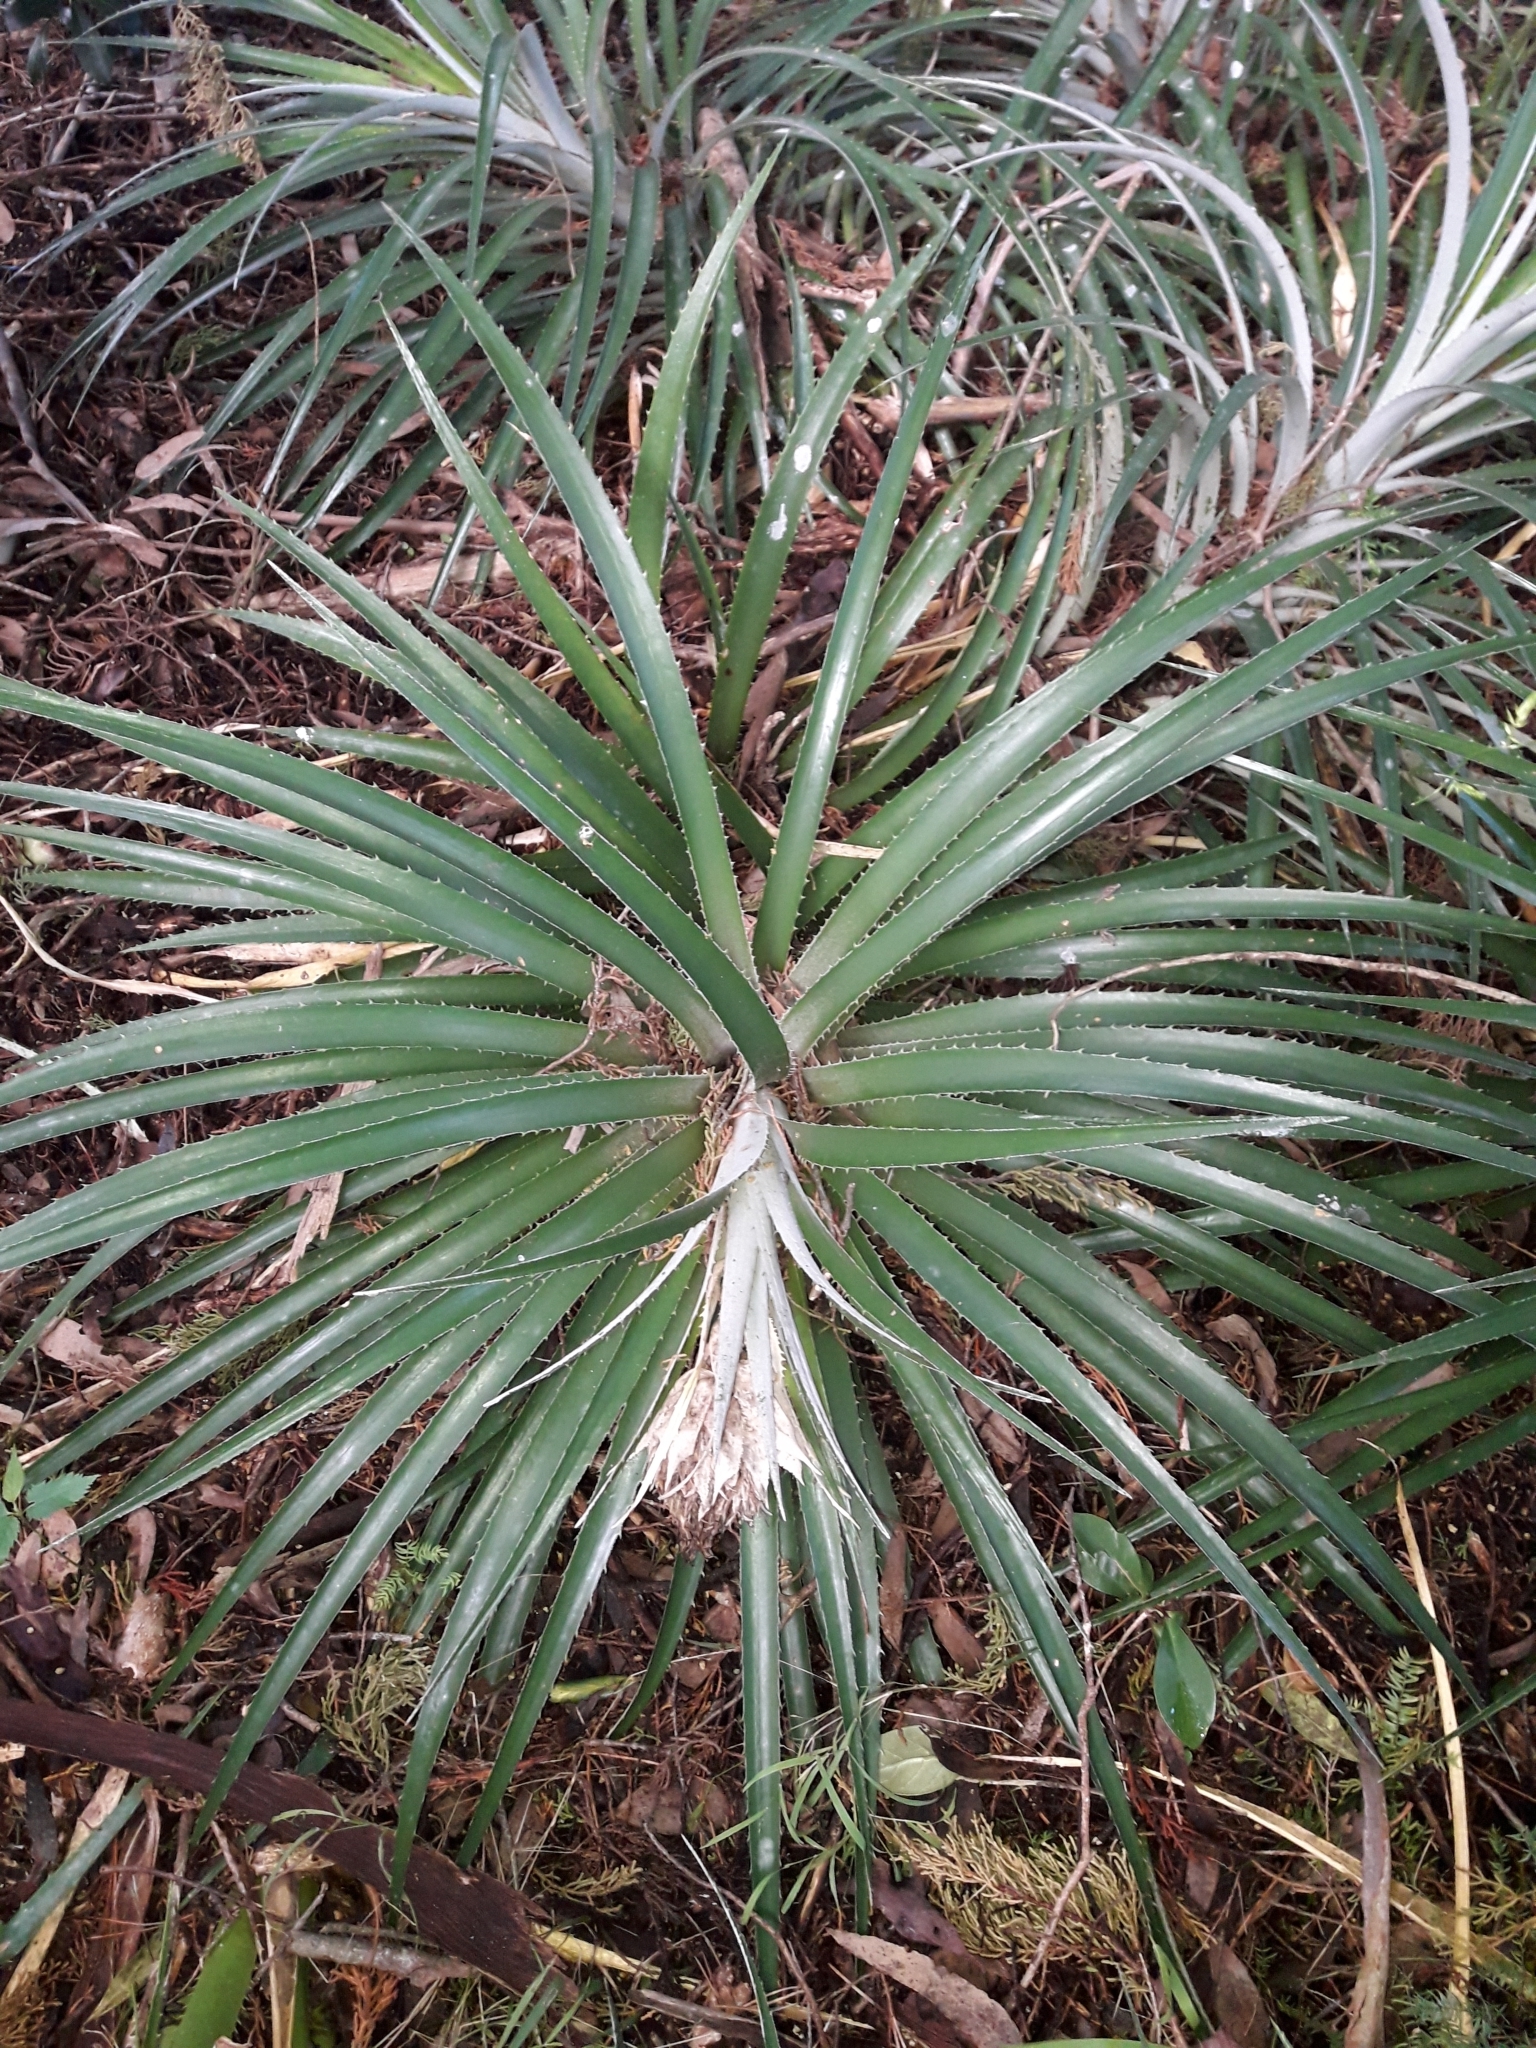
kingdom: Plantae
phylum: Tracheophyta
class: Liliopsida
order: Poales
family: Bromeliaceae
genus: Ochagavia
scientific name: Ochagavia carnea
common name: Tresco rhodostachys
